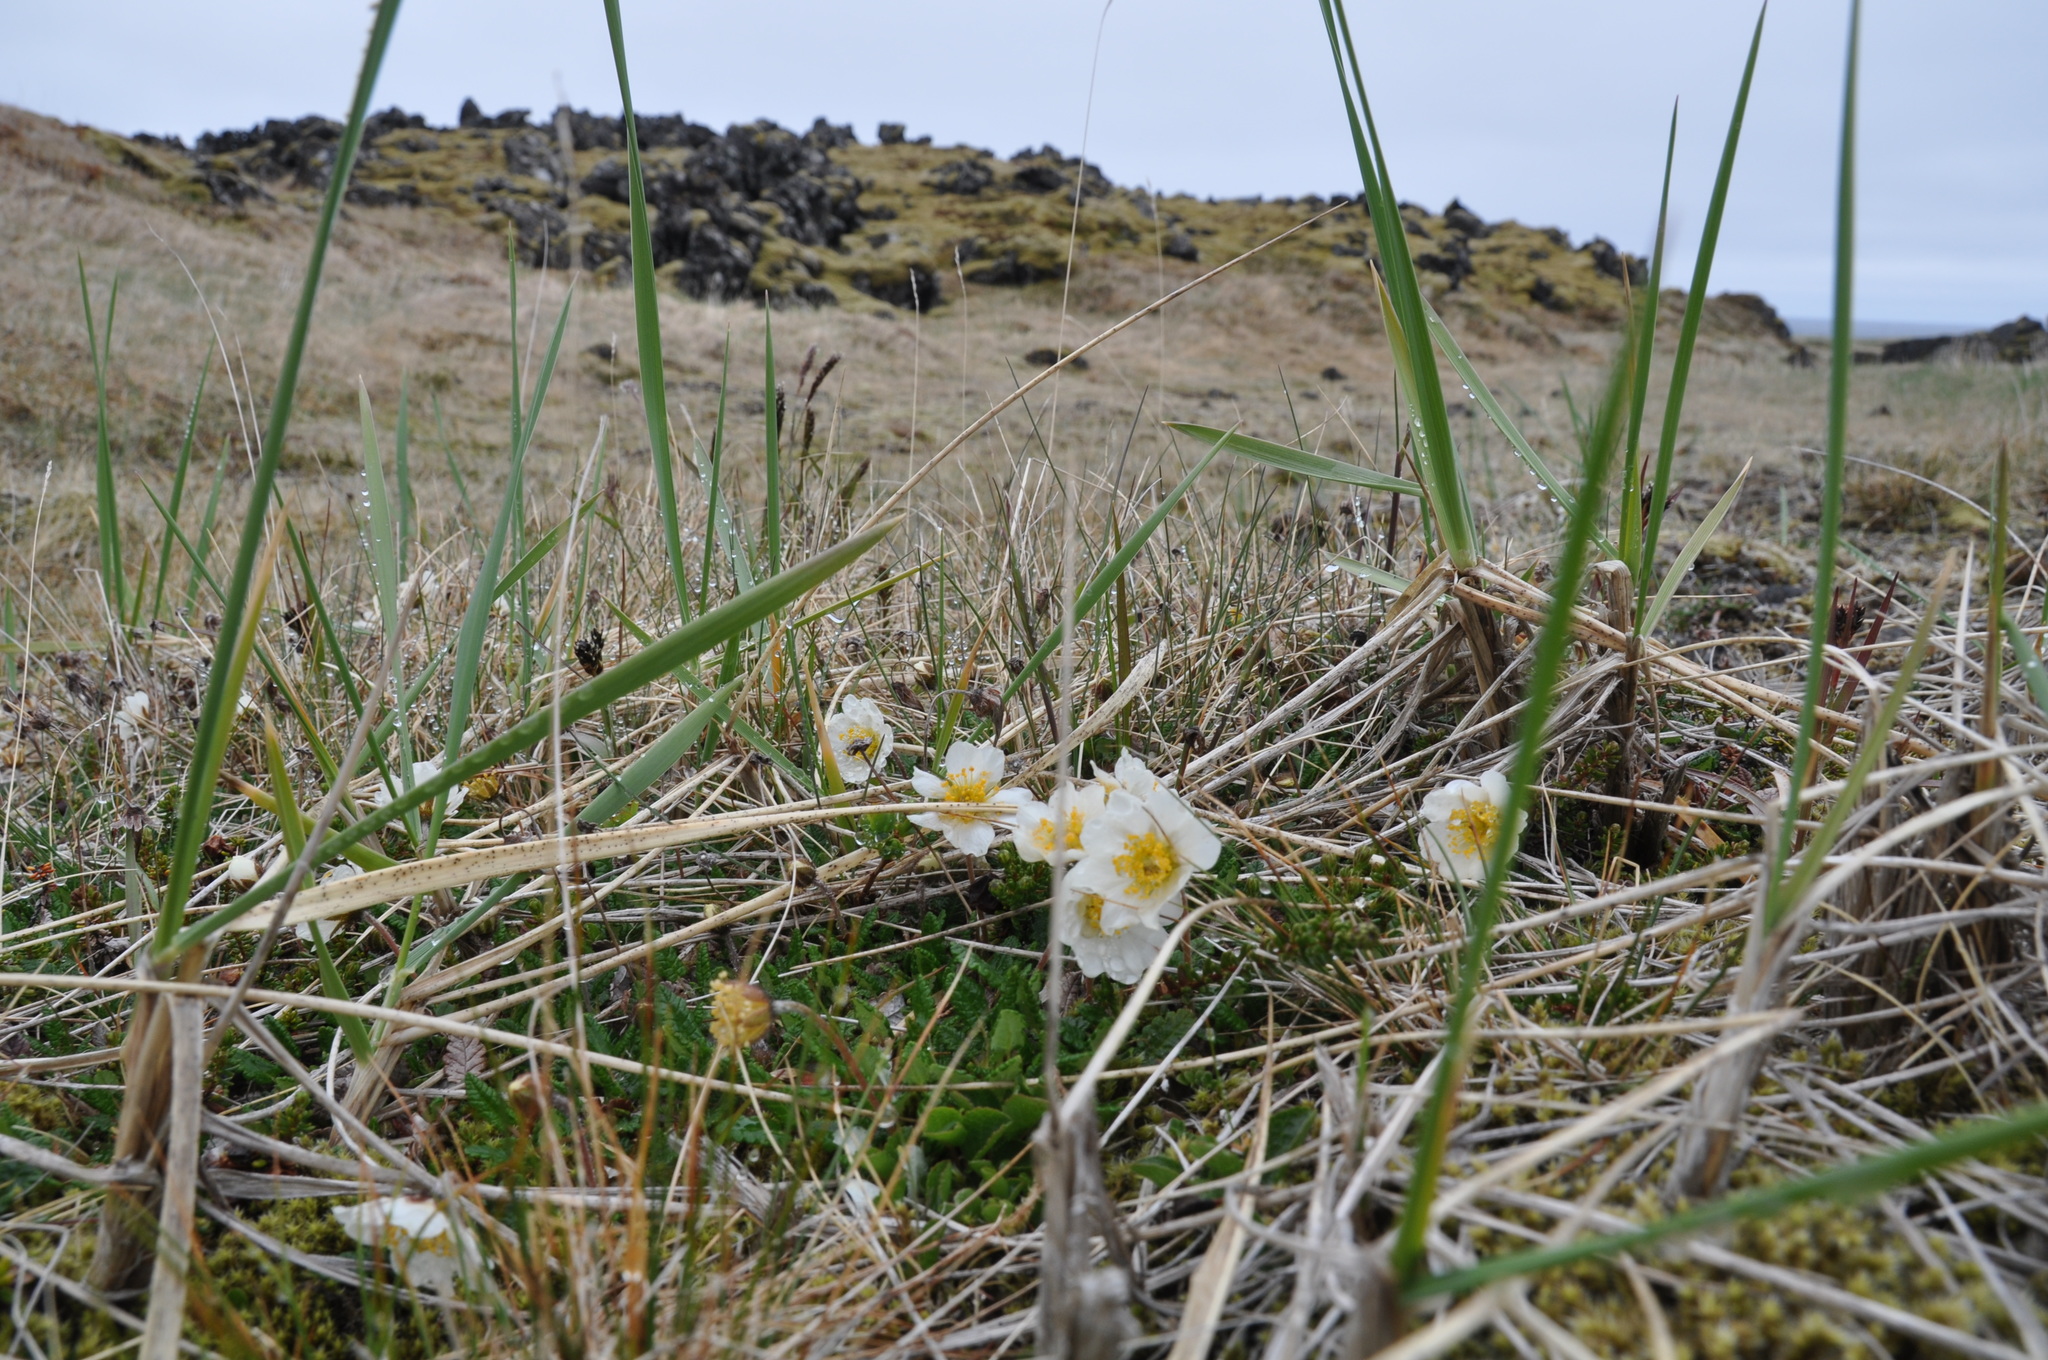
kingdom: Plantae
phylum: Tracheophyta
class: Magnoliopsida
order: Rosales
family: Rosaceae
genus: Dryas
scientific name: Dryas octopetala
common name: Eight-petal mountain-avens
